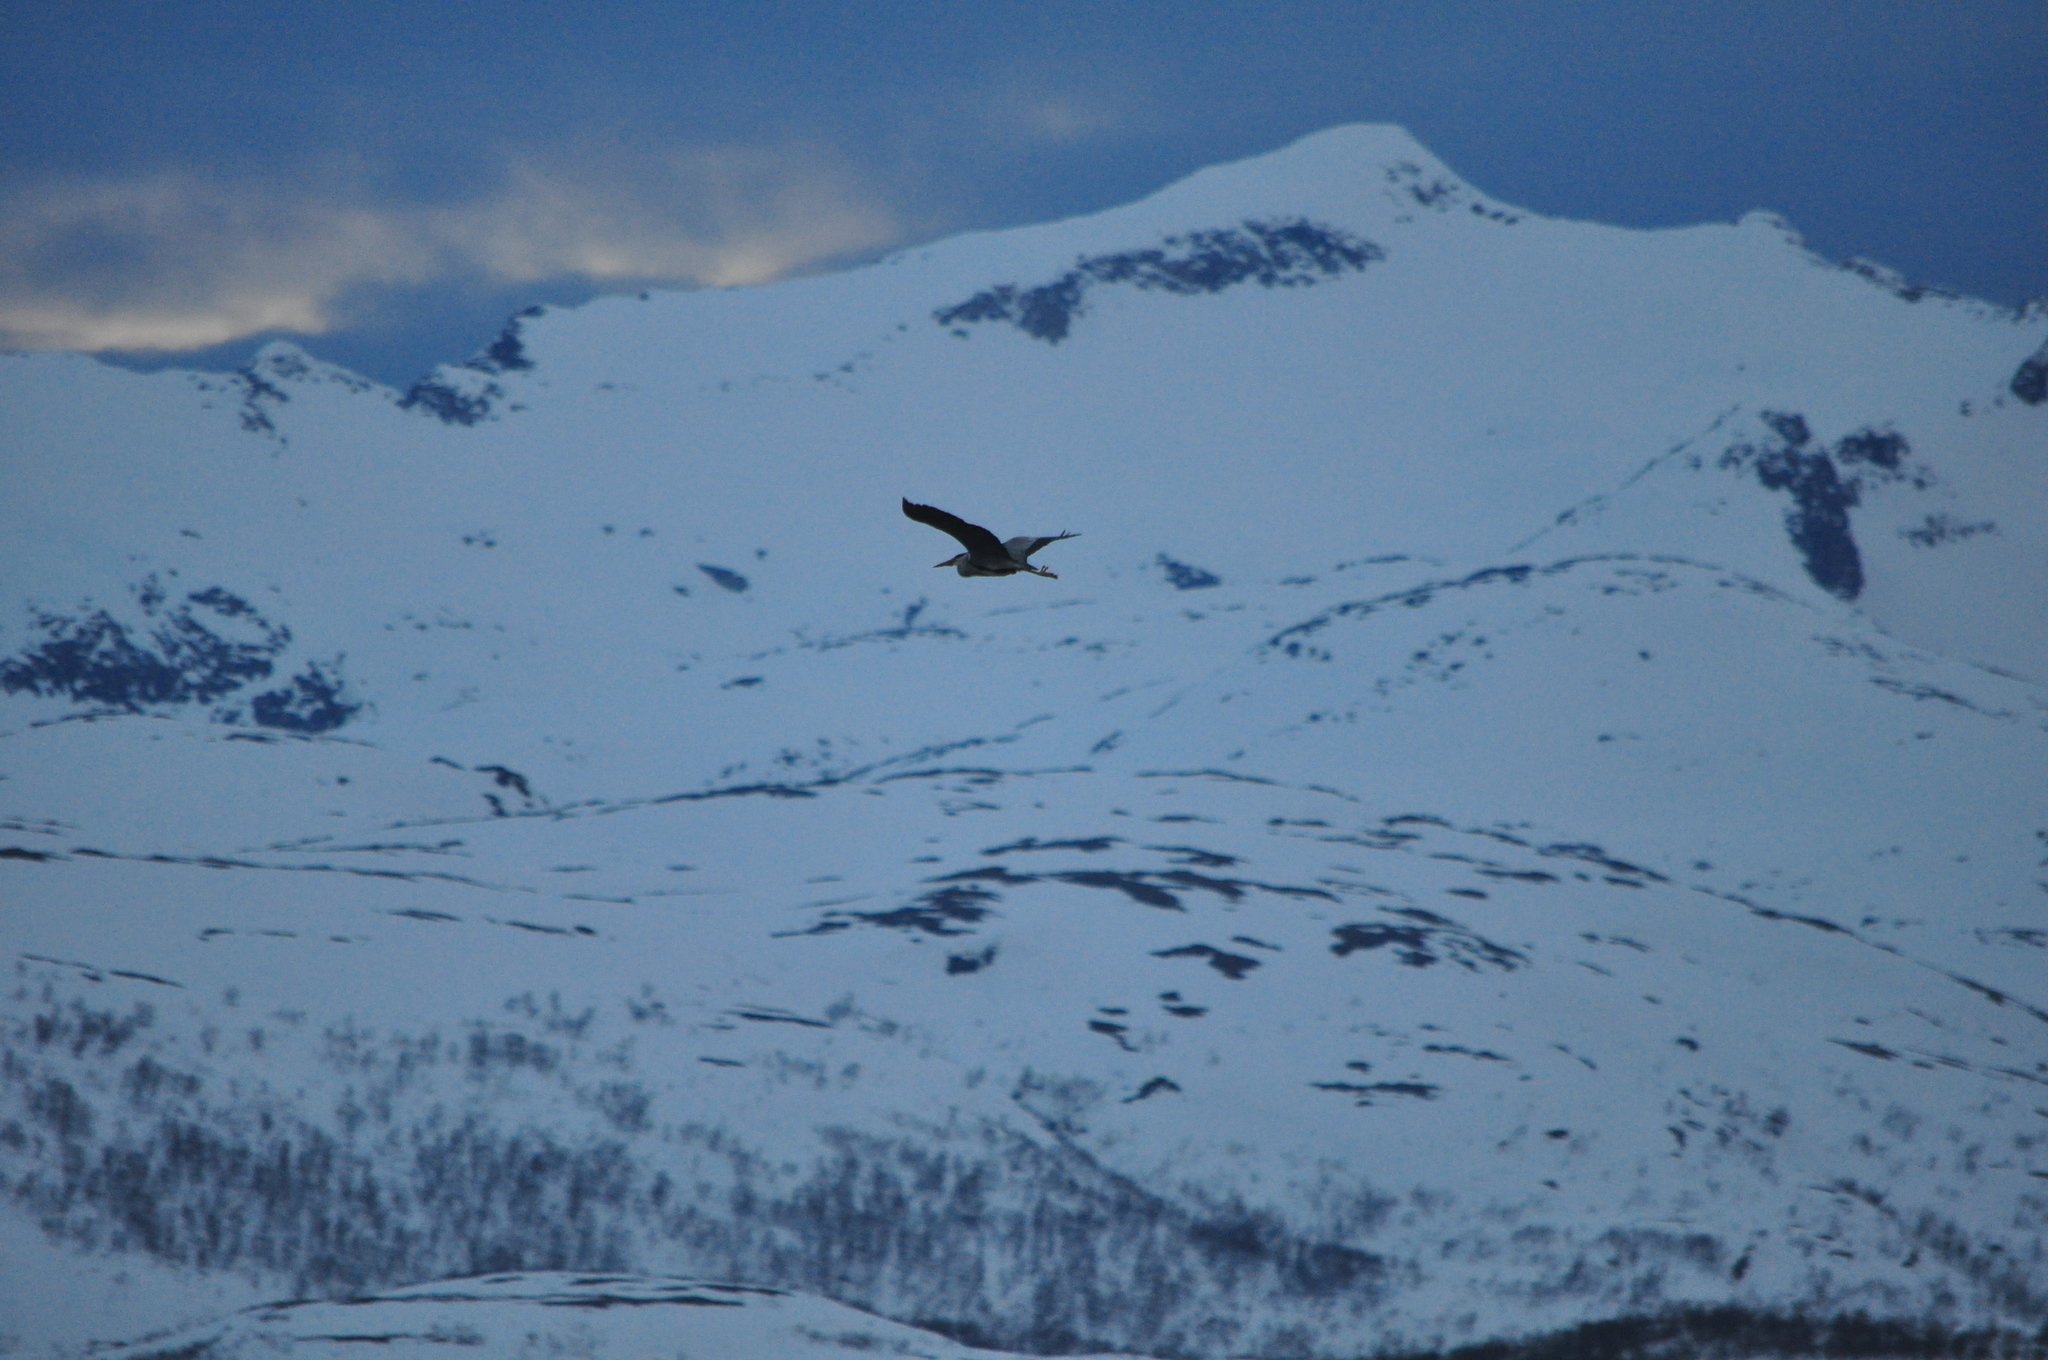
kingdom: Animalia
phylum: Chordata
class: Aves
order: Pelecaniformes
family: Ardeidae
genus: Ardea
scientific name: Ardea cinerea
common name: Grey heron
